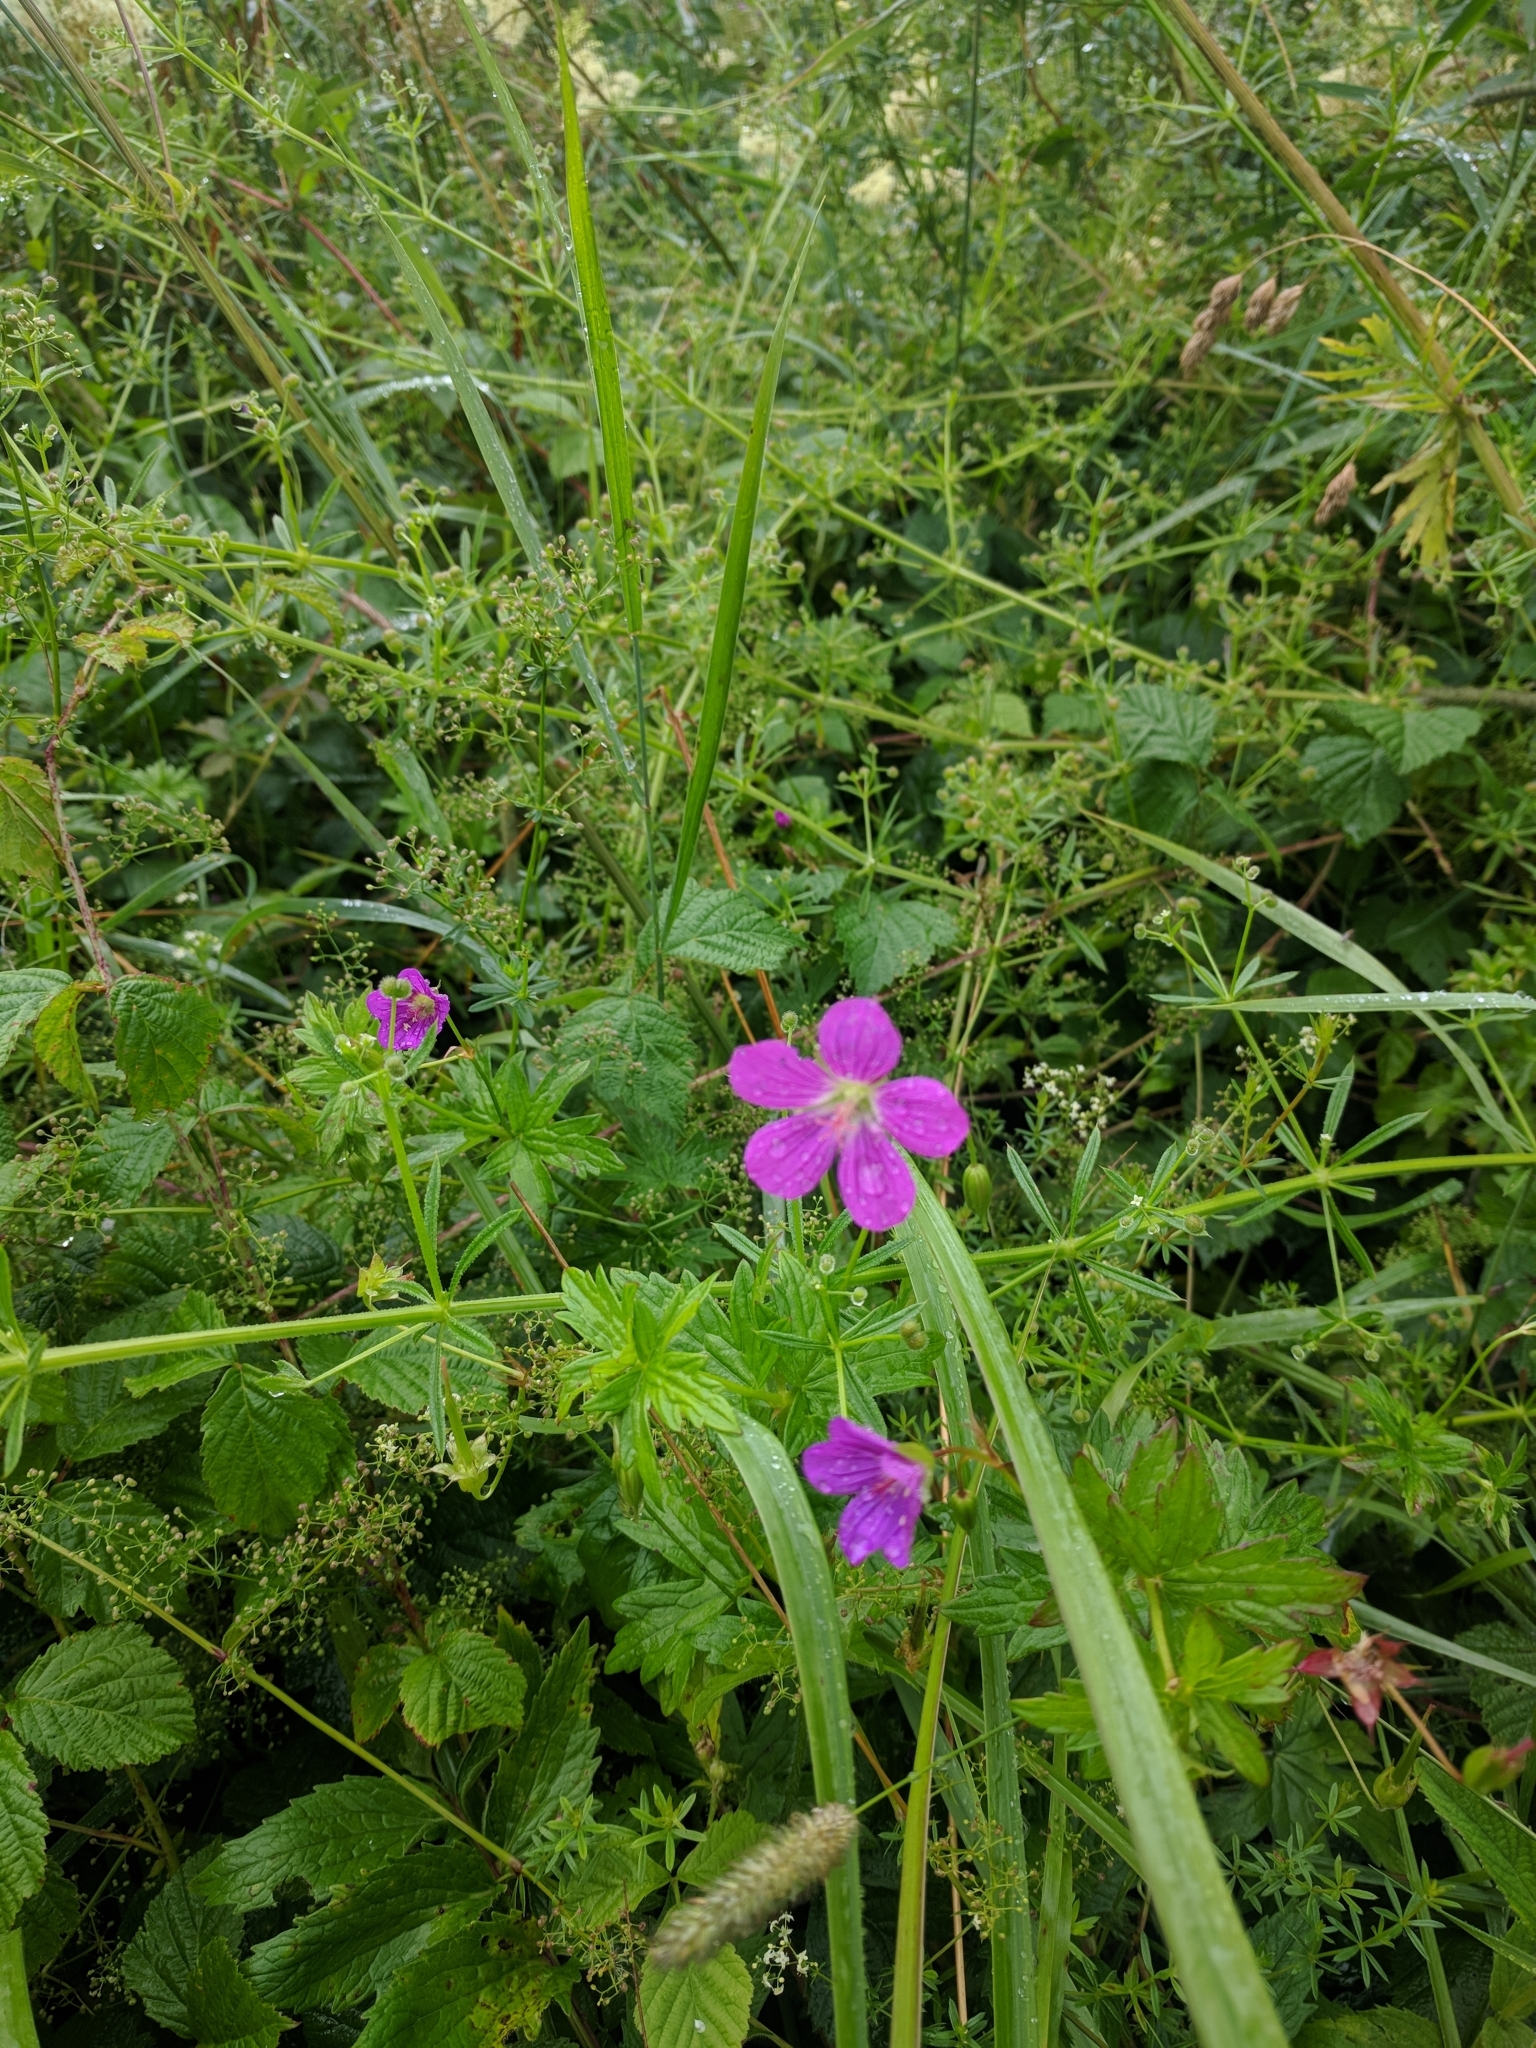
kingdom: Plantae
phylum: Tracheophyta
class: Magnoliopsida
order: Geraniales
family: Geraniaceae
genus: Geranium
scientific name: Geranium palustre
